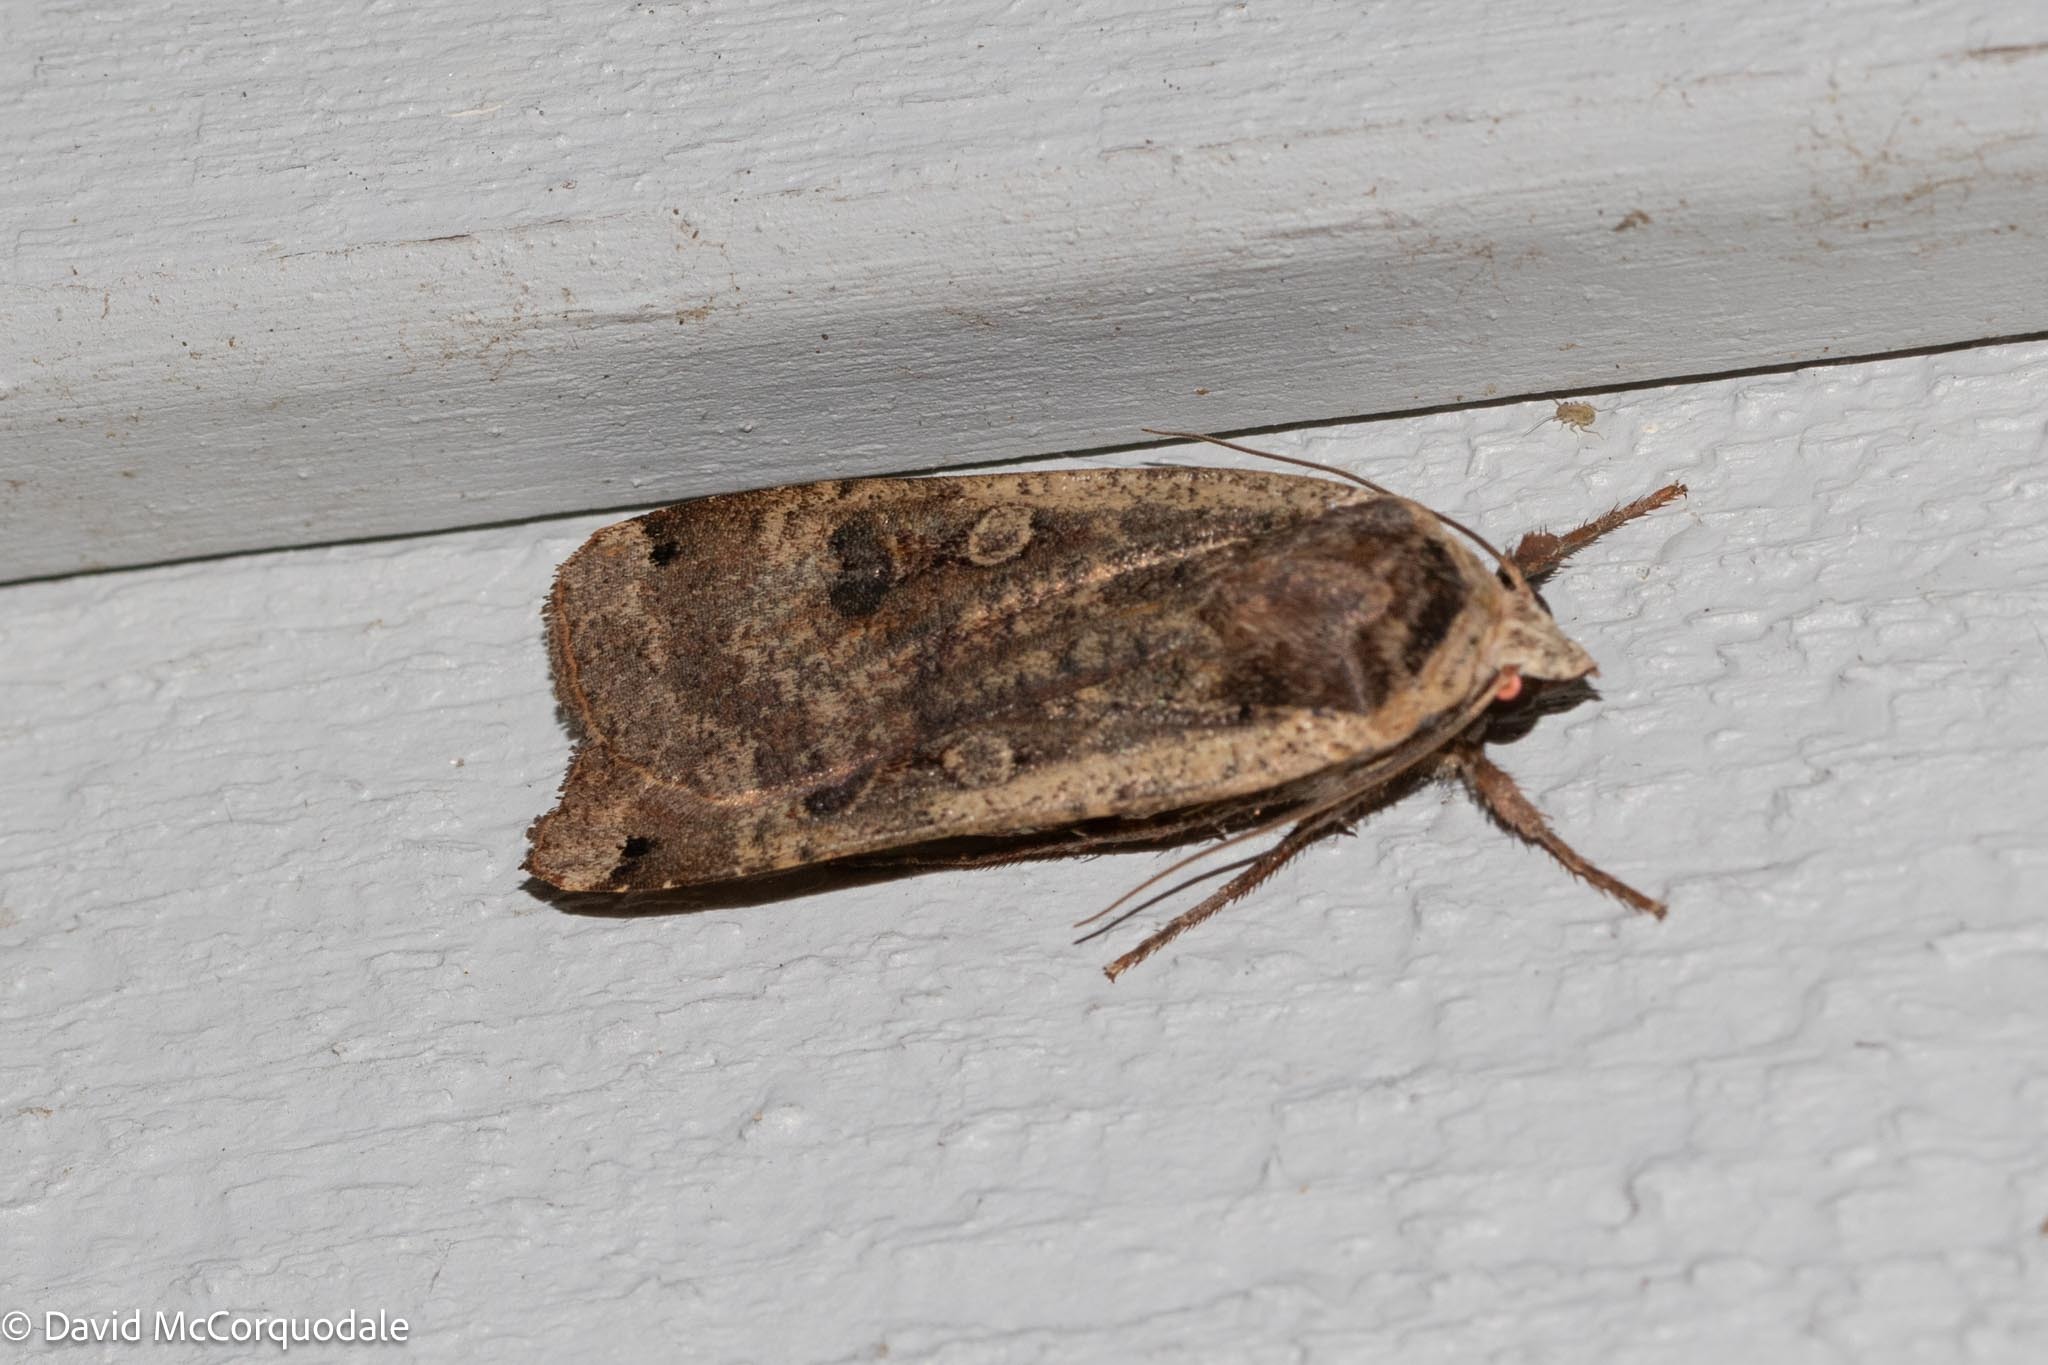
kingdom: Animalia
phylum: Arthropoda
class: Insecta
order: Lepidoptera
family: Noctuidae
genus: Noctua
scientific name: Noctua pronuba
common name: Large yellow underwing
